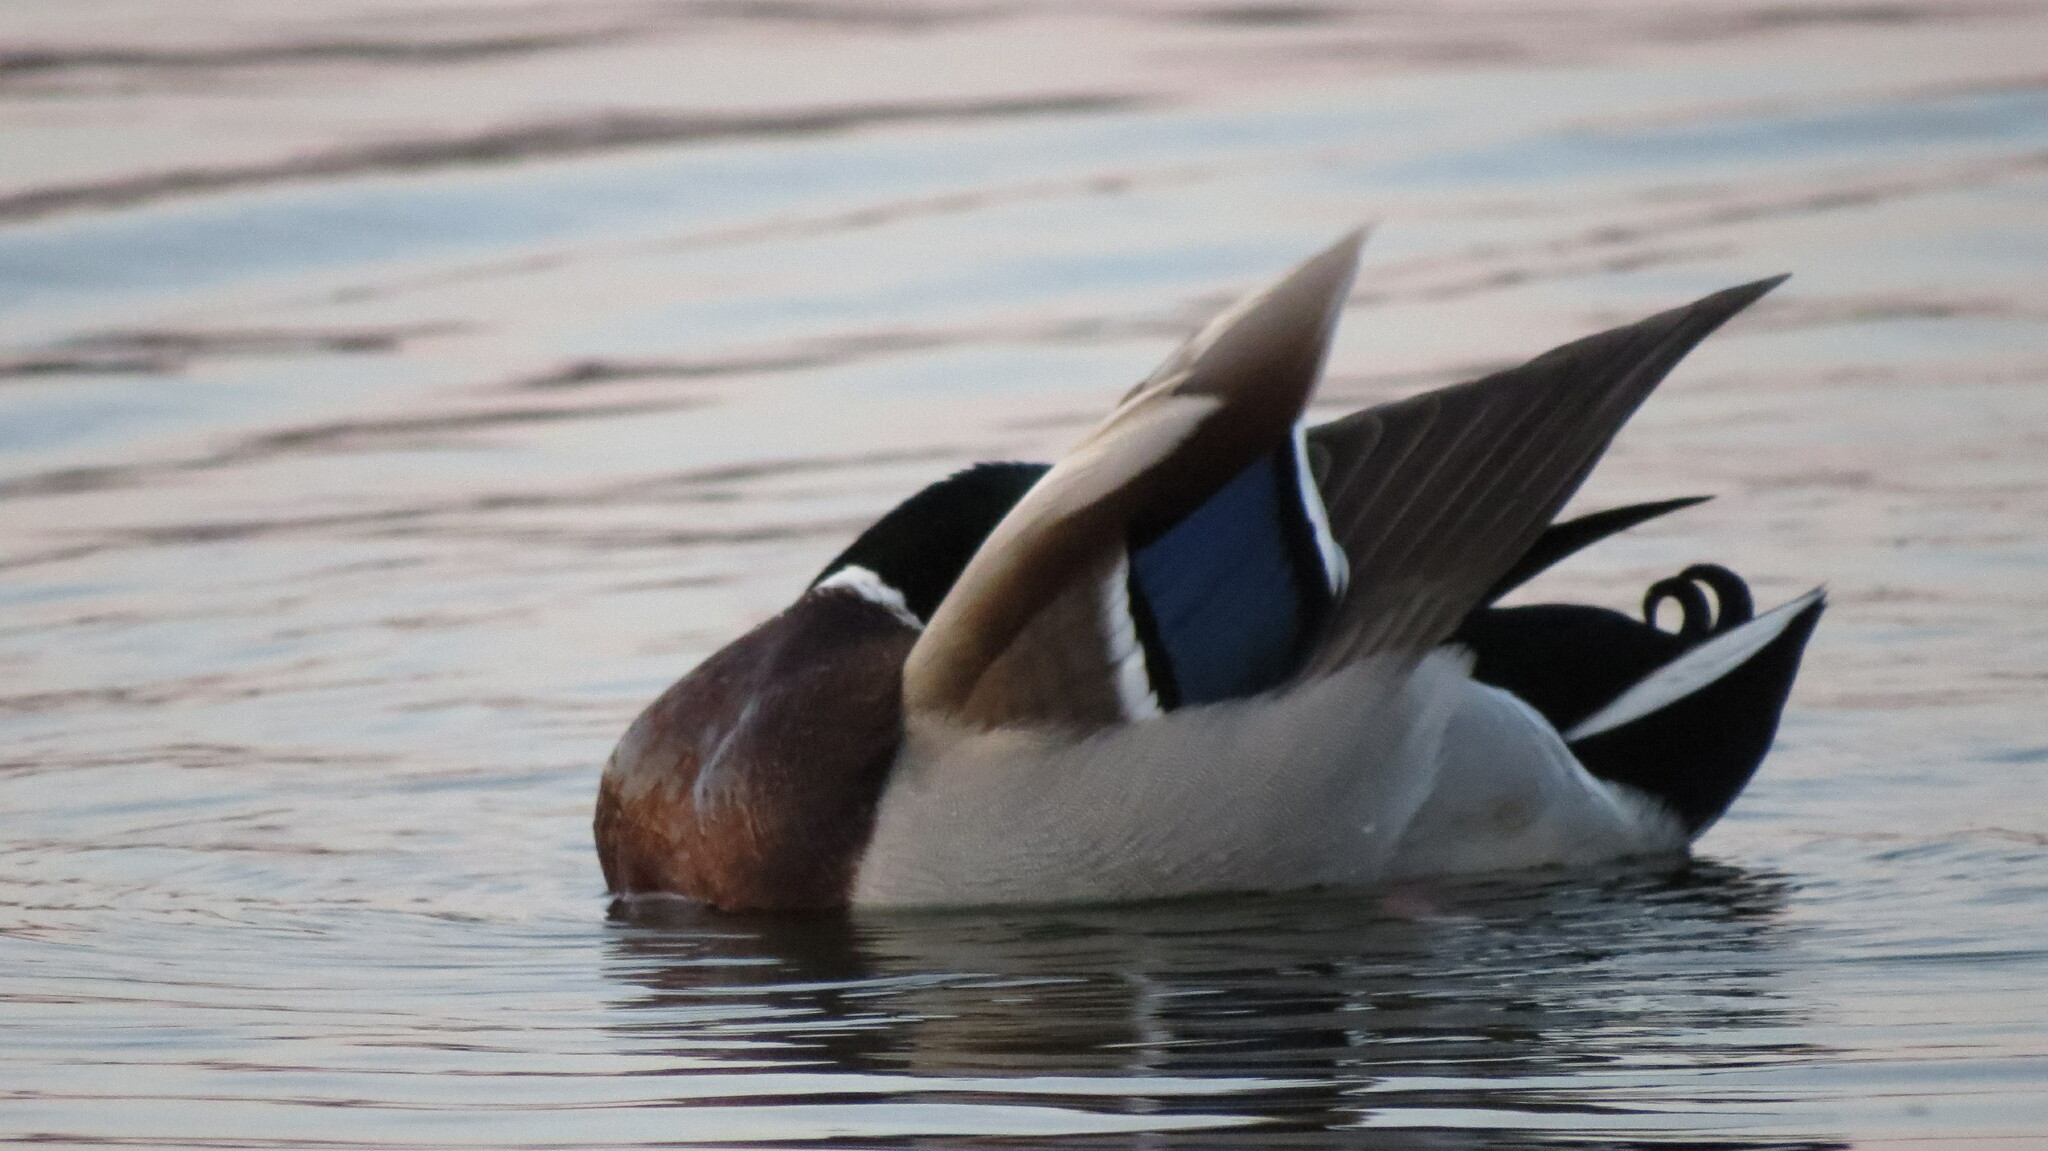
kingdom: Animalia
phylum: Chordata
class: Aves
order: Anseriformes
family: Anatidae
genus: Anas
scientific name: Anas platyrhynchos
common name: Mallard
